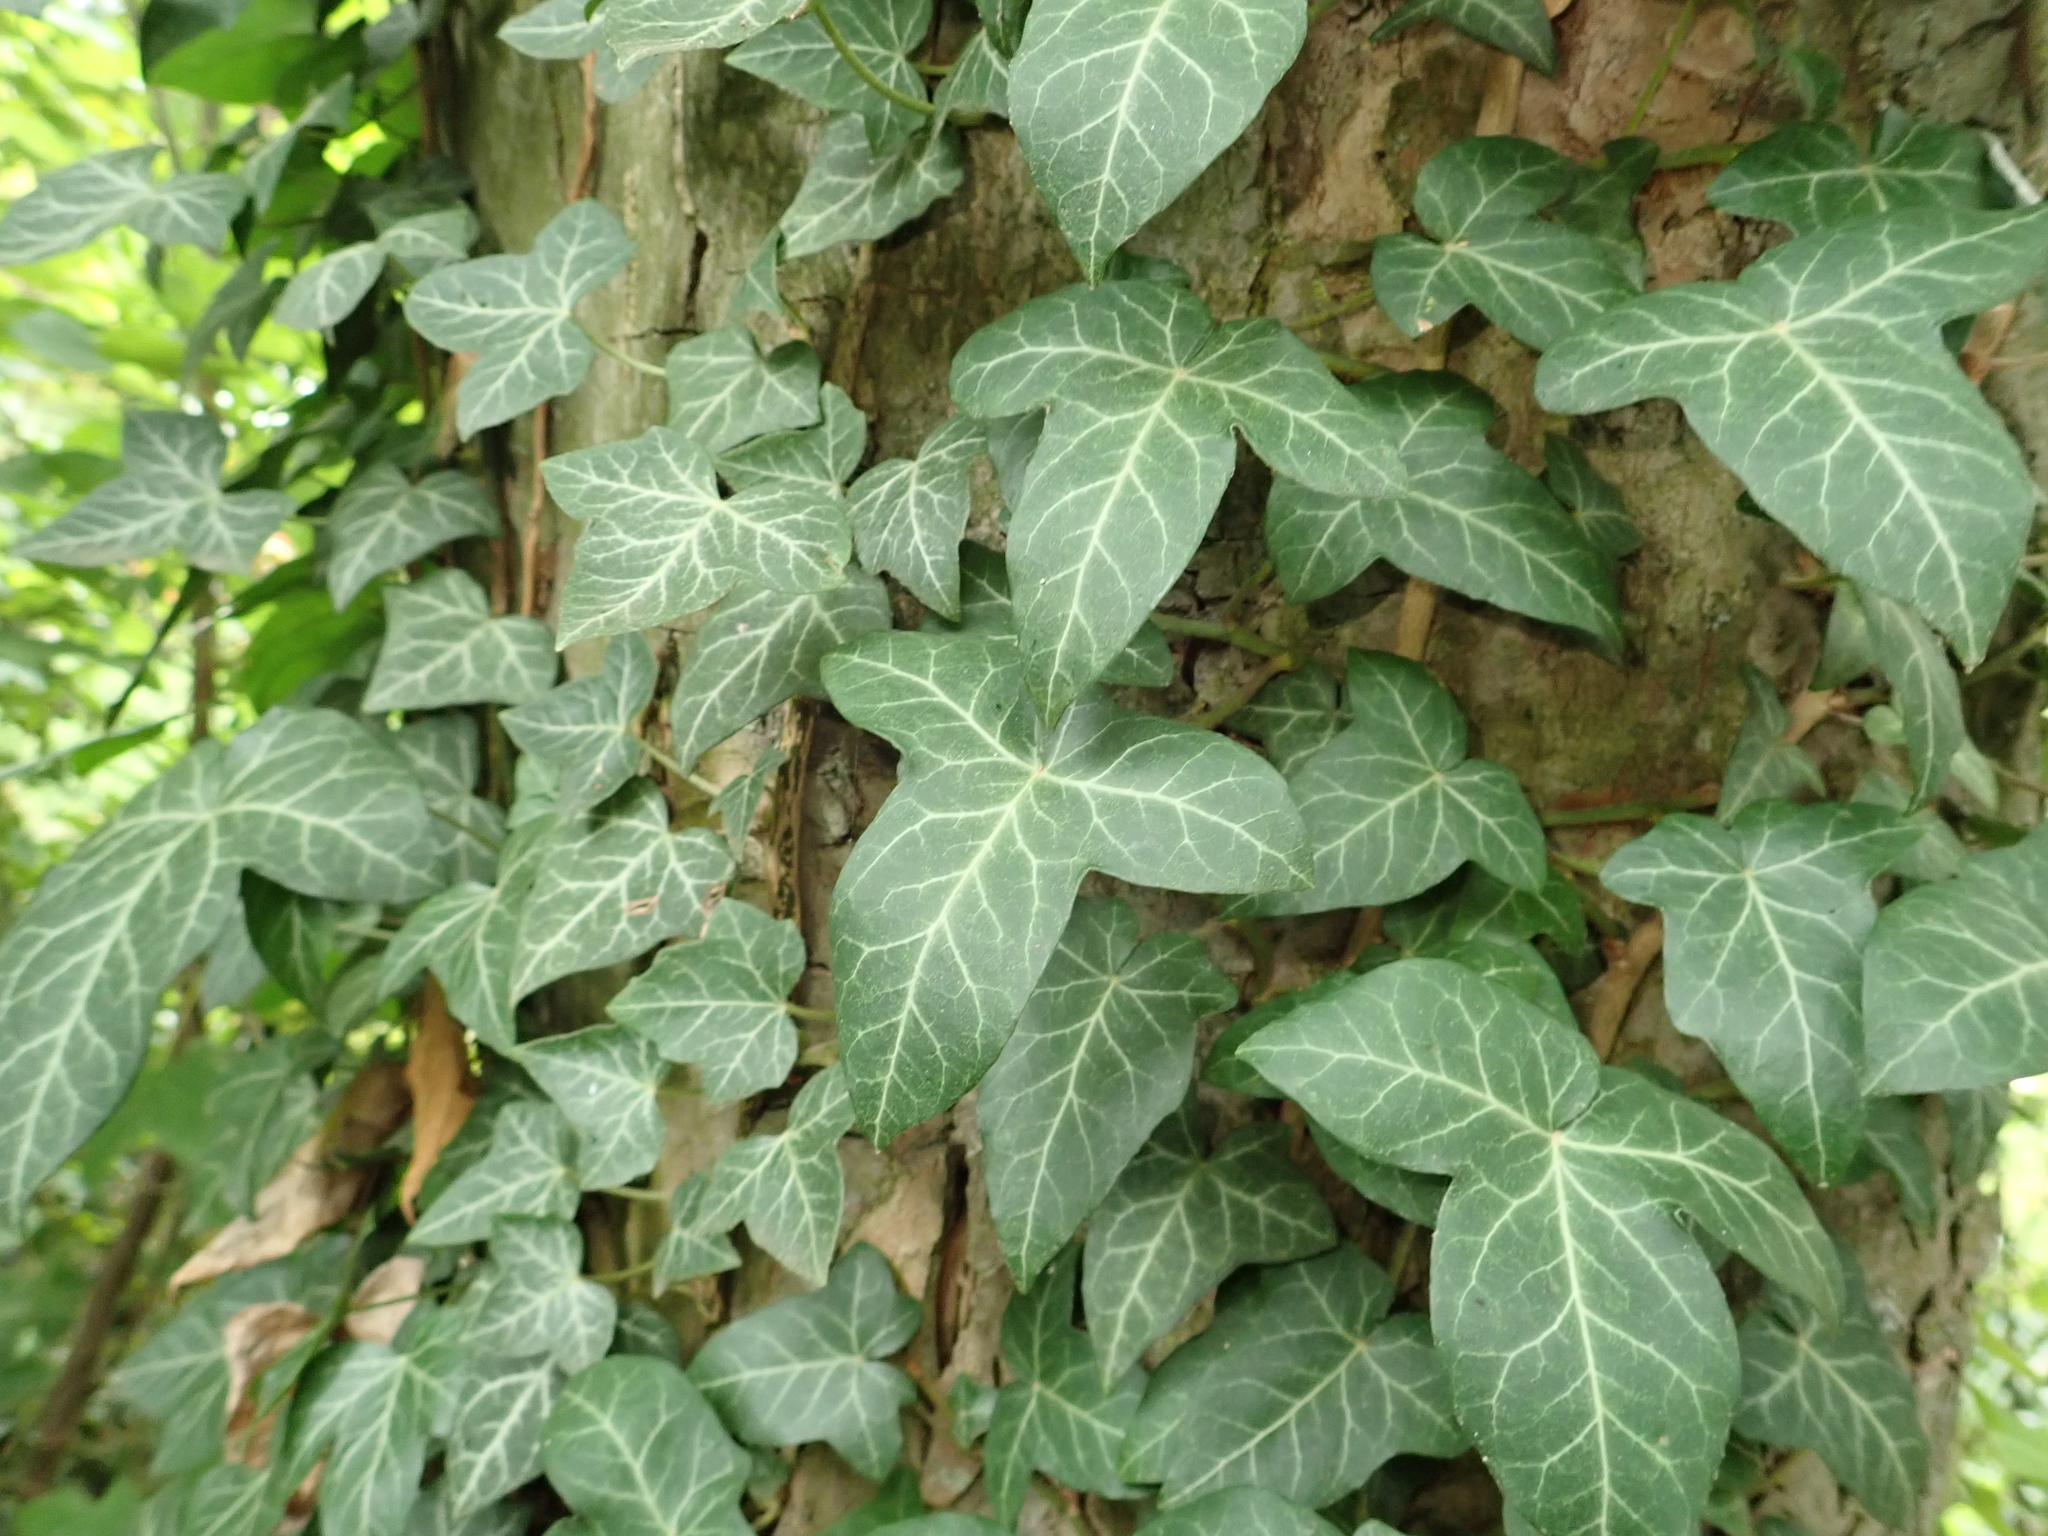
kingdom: Plantae
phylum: Tracheophyta
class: Magnoliopsida
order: Apiales
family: Araliaceae
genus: Hedera
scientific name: Hedera helix
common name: Ivy
